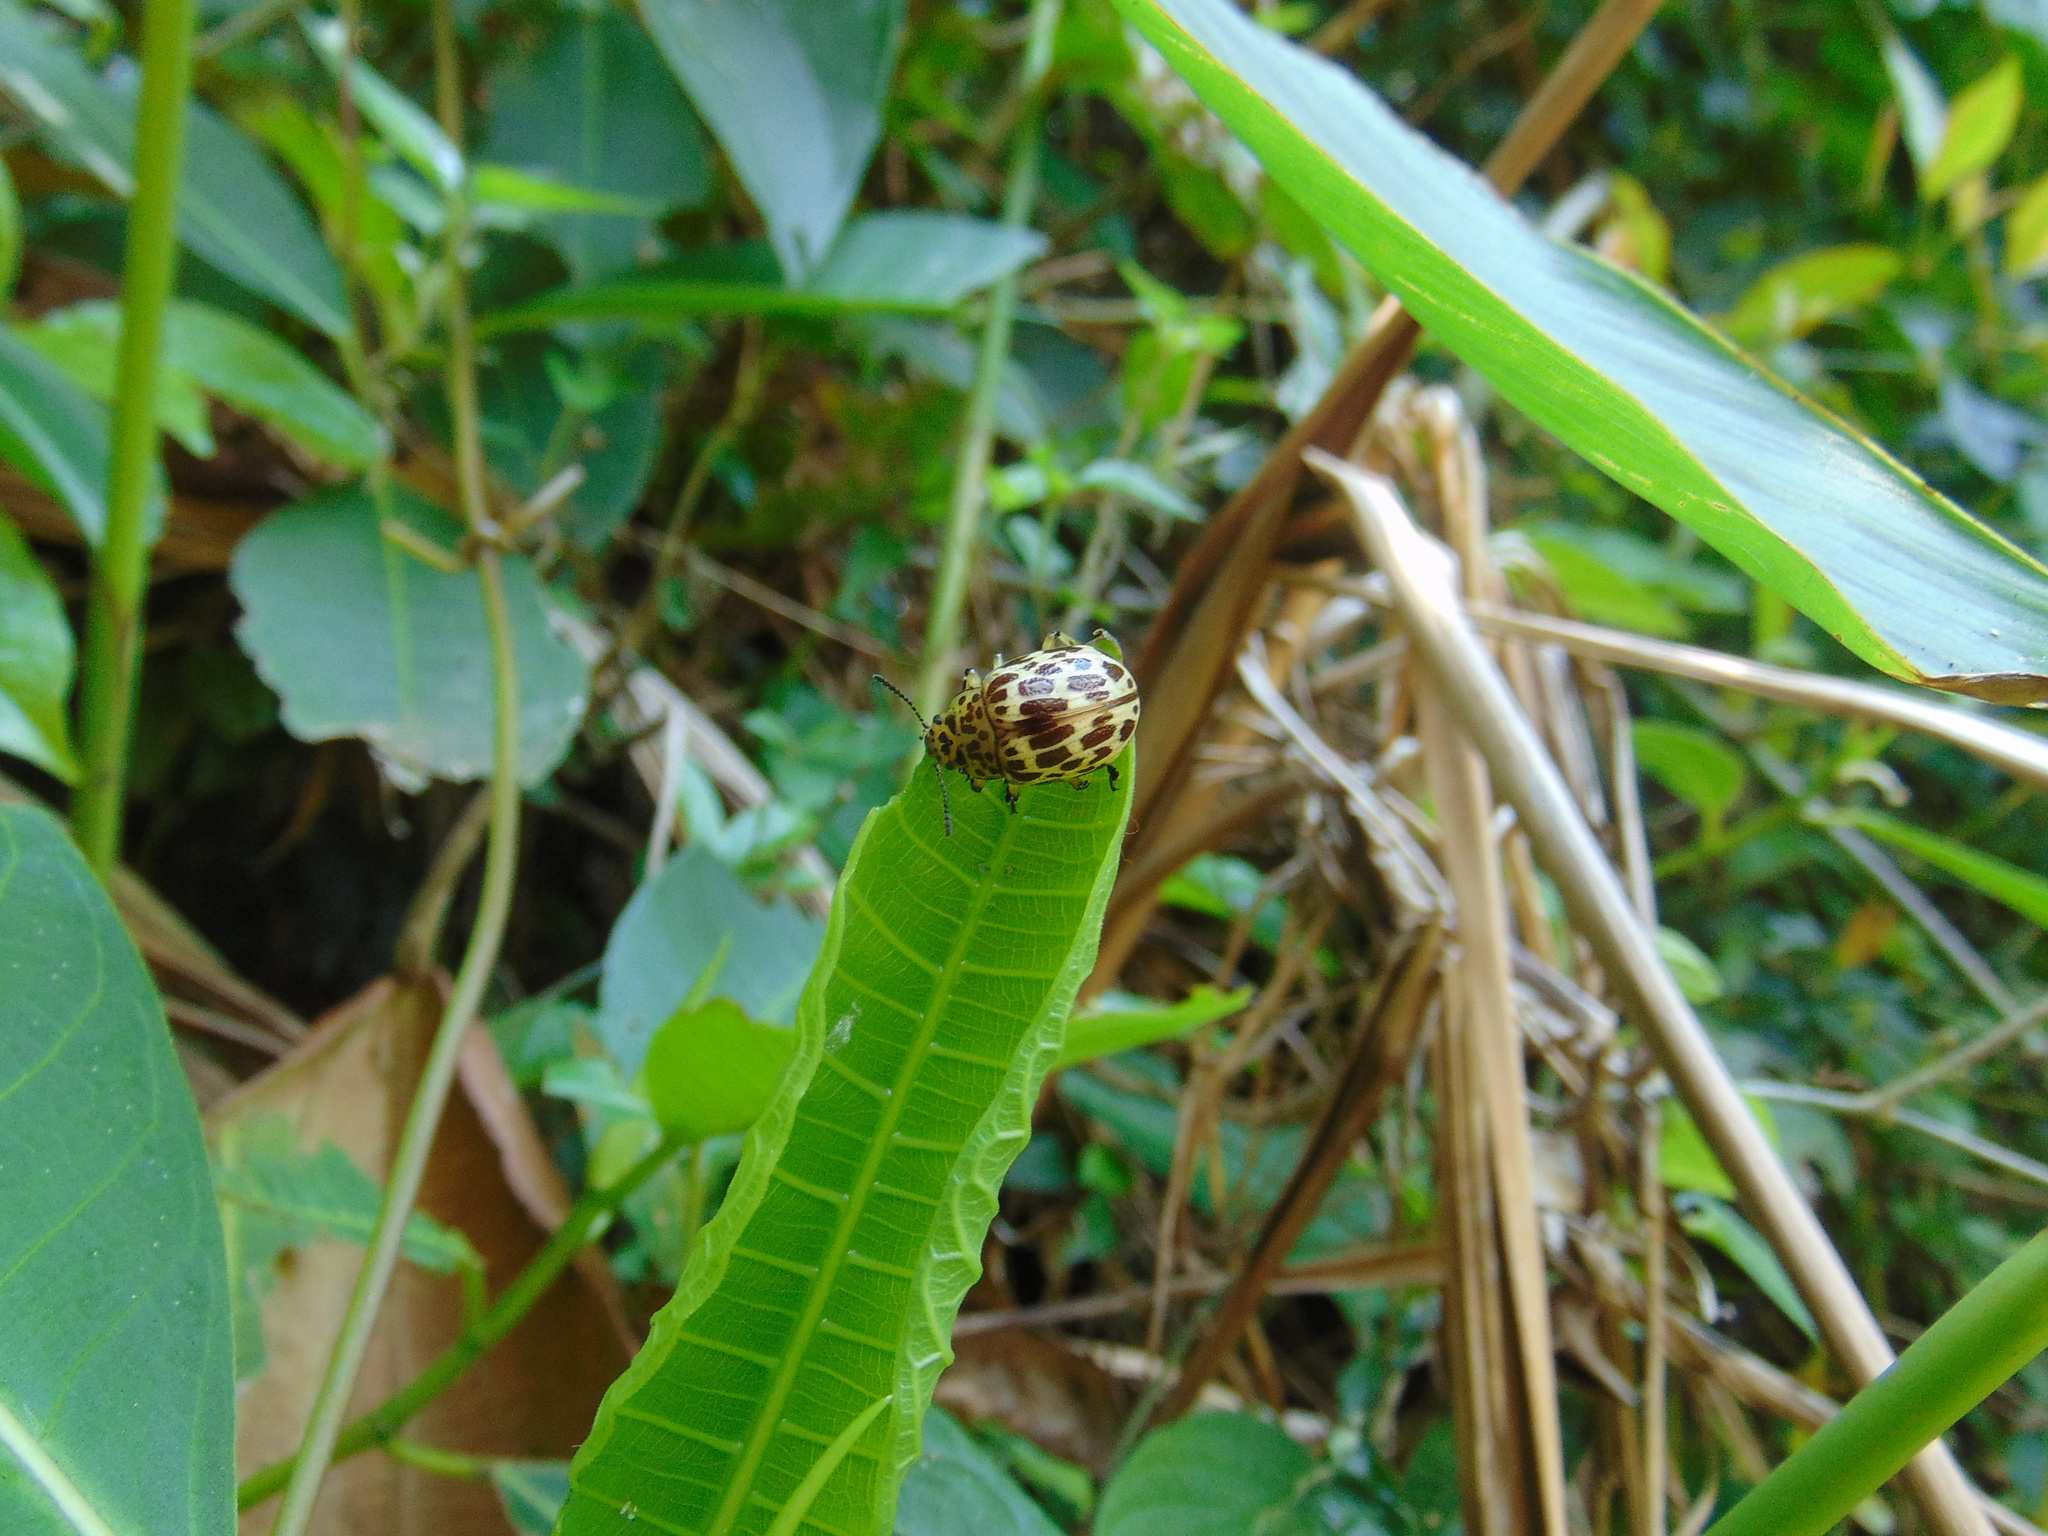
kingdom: Animalia
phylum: Arthropoda
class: Insecta
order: Coleoptera
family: Chrysomelidae
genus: Platyphora
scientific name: Platyphora
